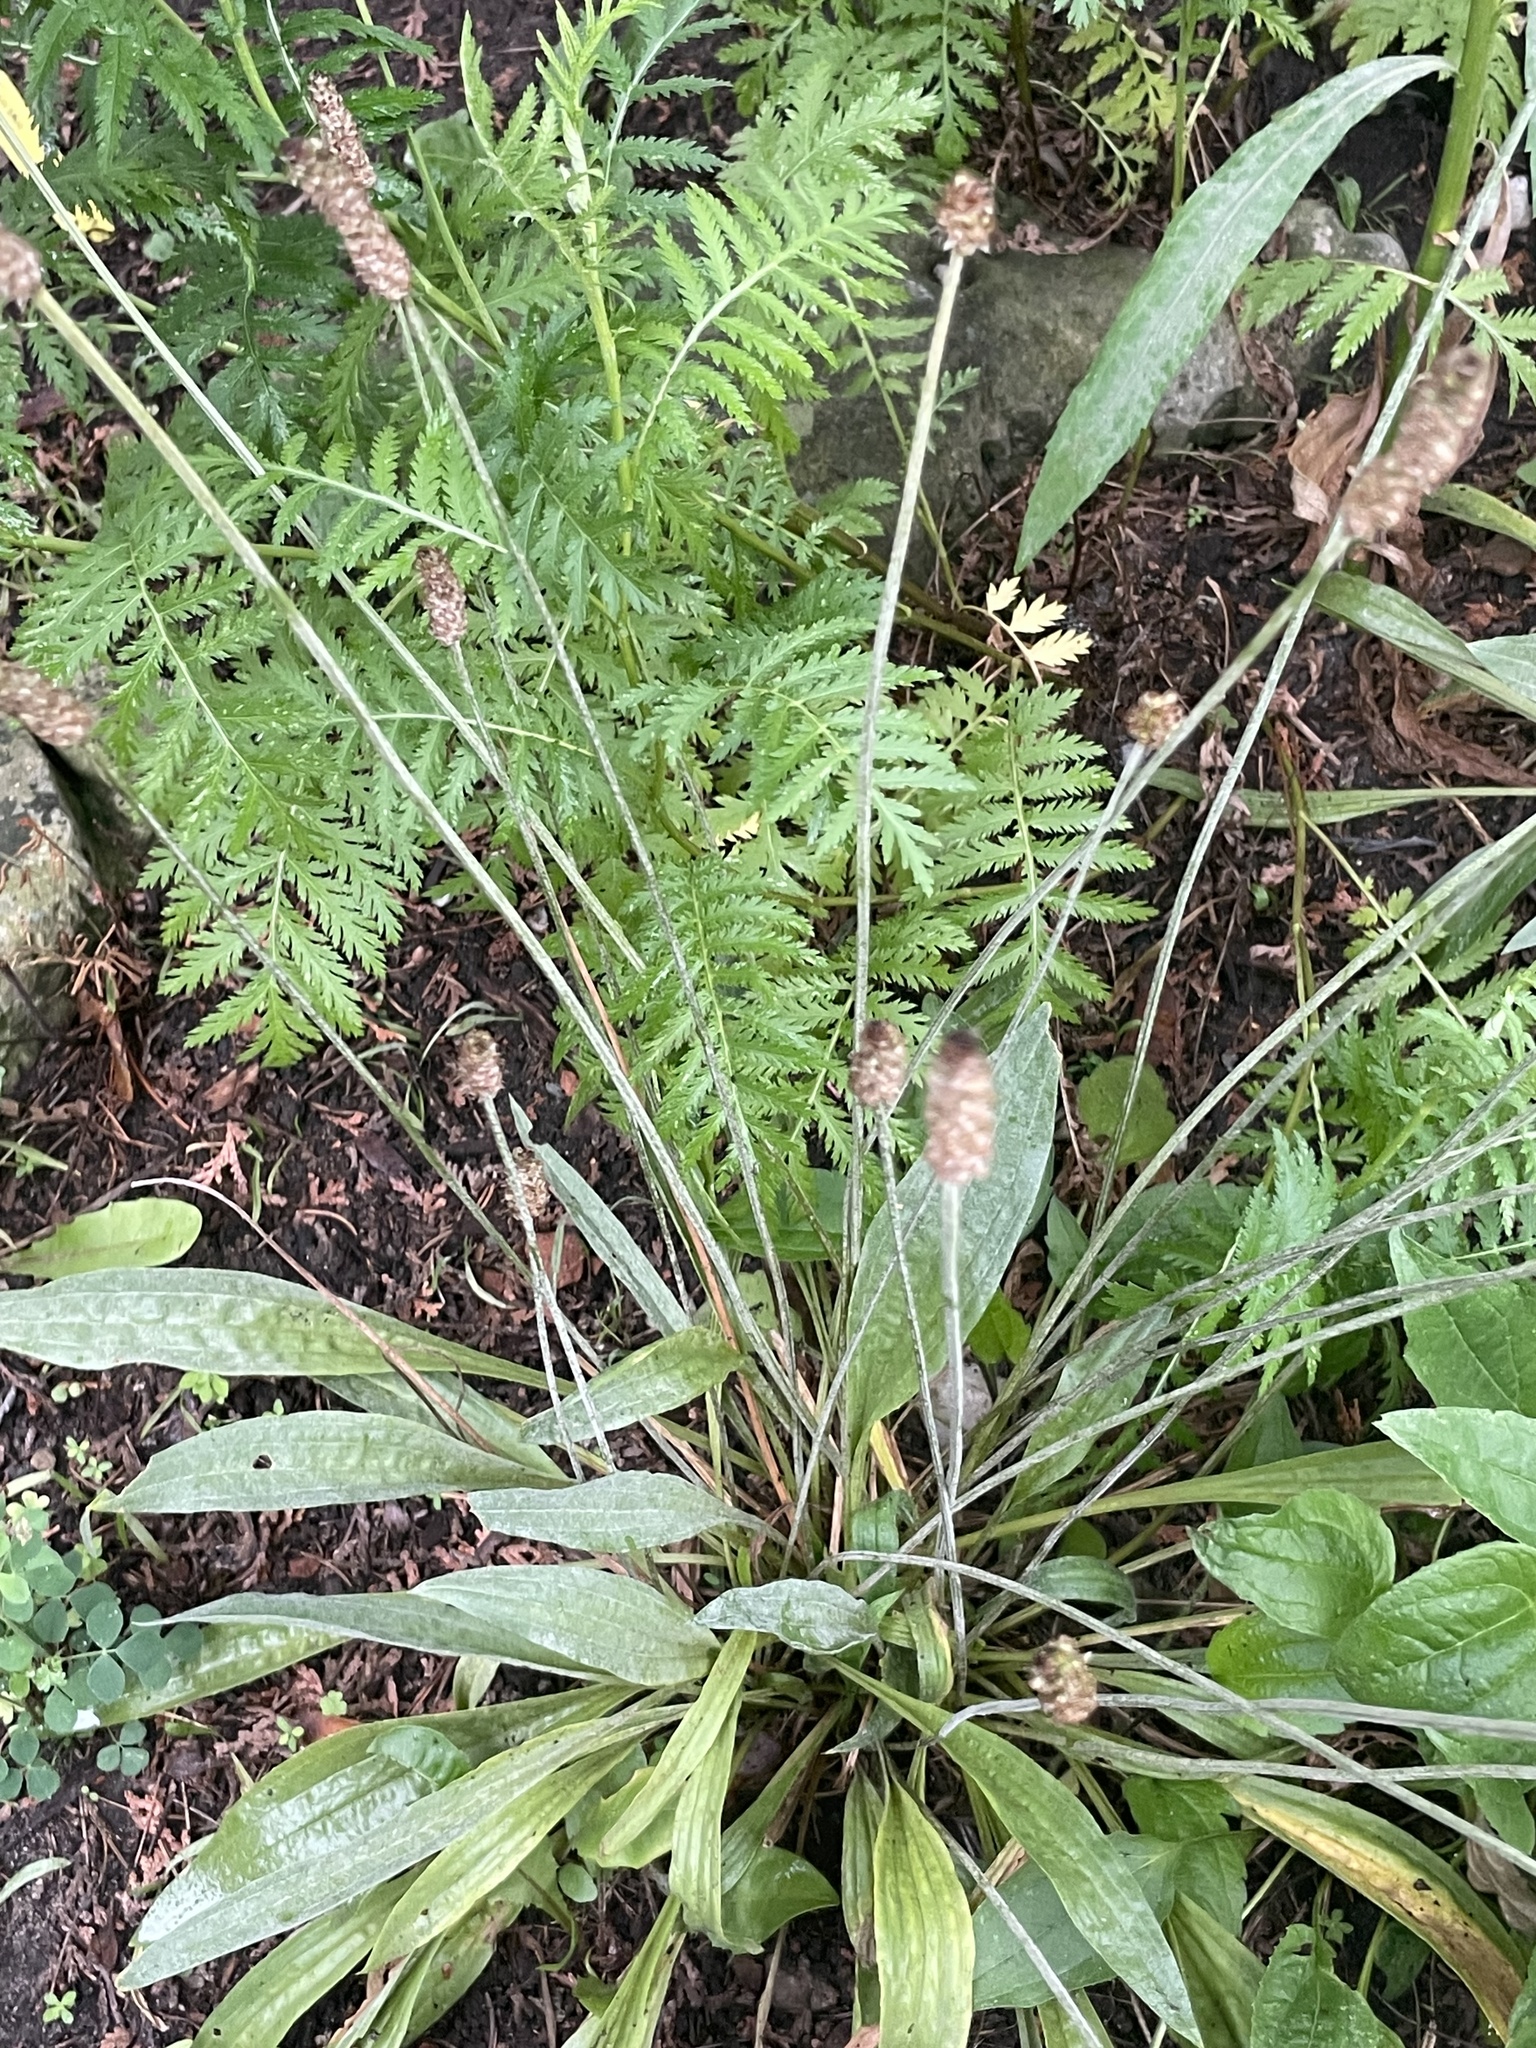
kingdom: Plantae
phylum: Tracheophyta
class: Magnoliopsida
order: Lamiales
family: Plantaginaceae
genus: Plantago
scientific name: Plantago lanceolata
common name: Ribwort plantain
